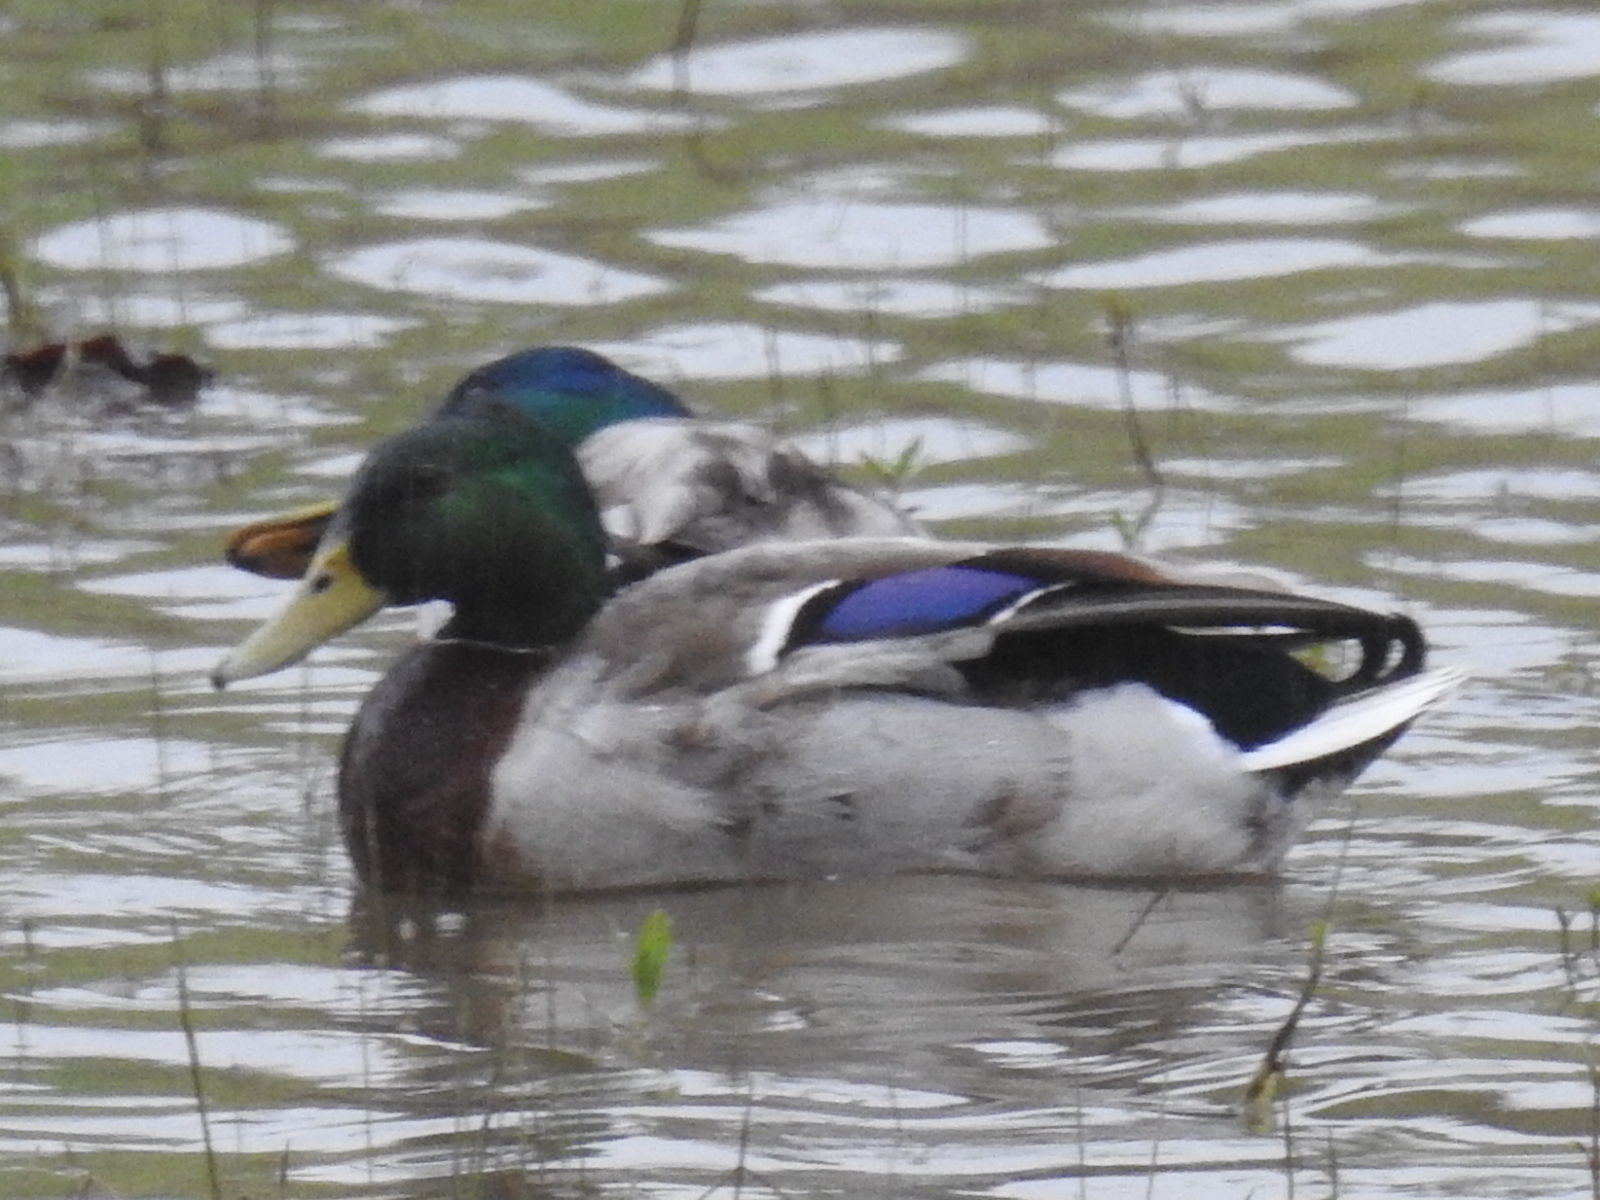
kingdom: Animalia
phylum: Chordata
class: Aves
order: Anseriformes
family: Anatidae
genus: Anas
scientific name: Anas platyrhynchos
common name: Mallard
